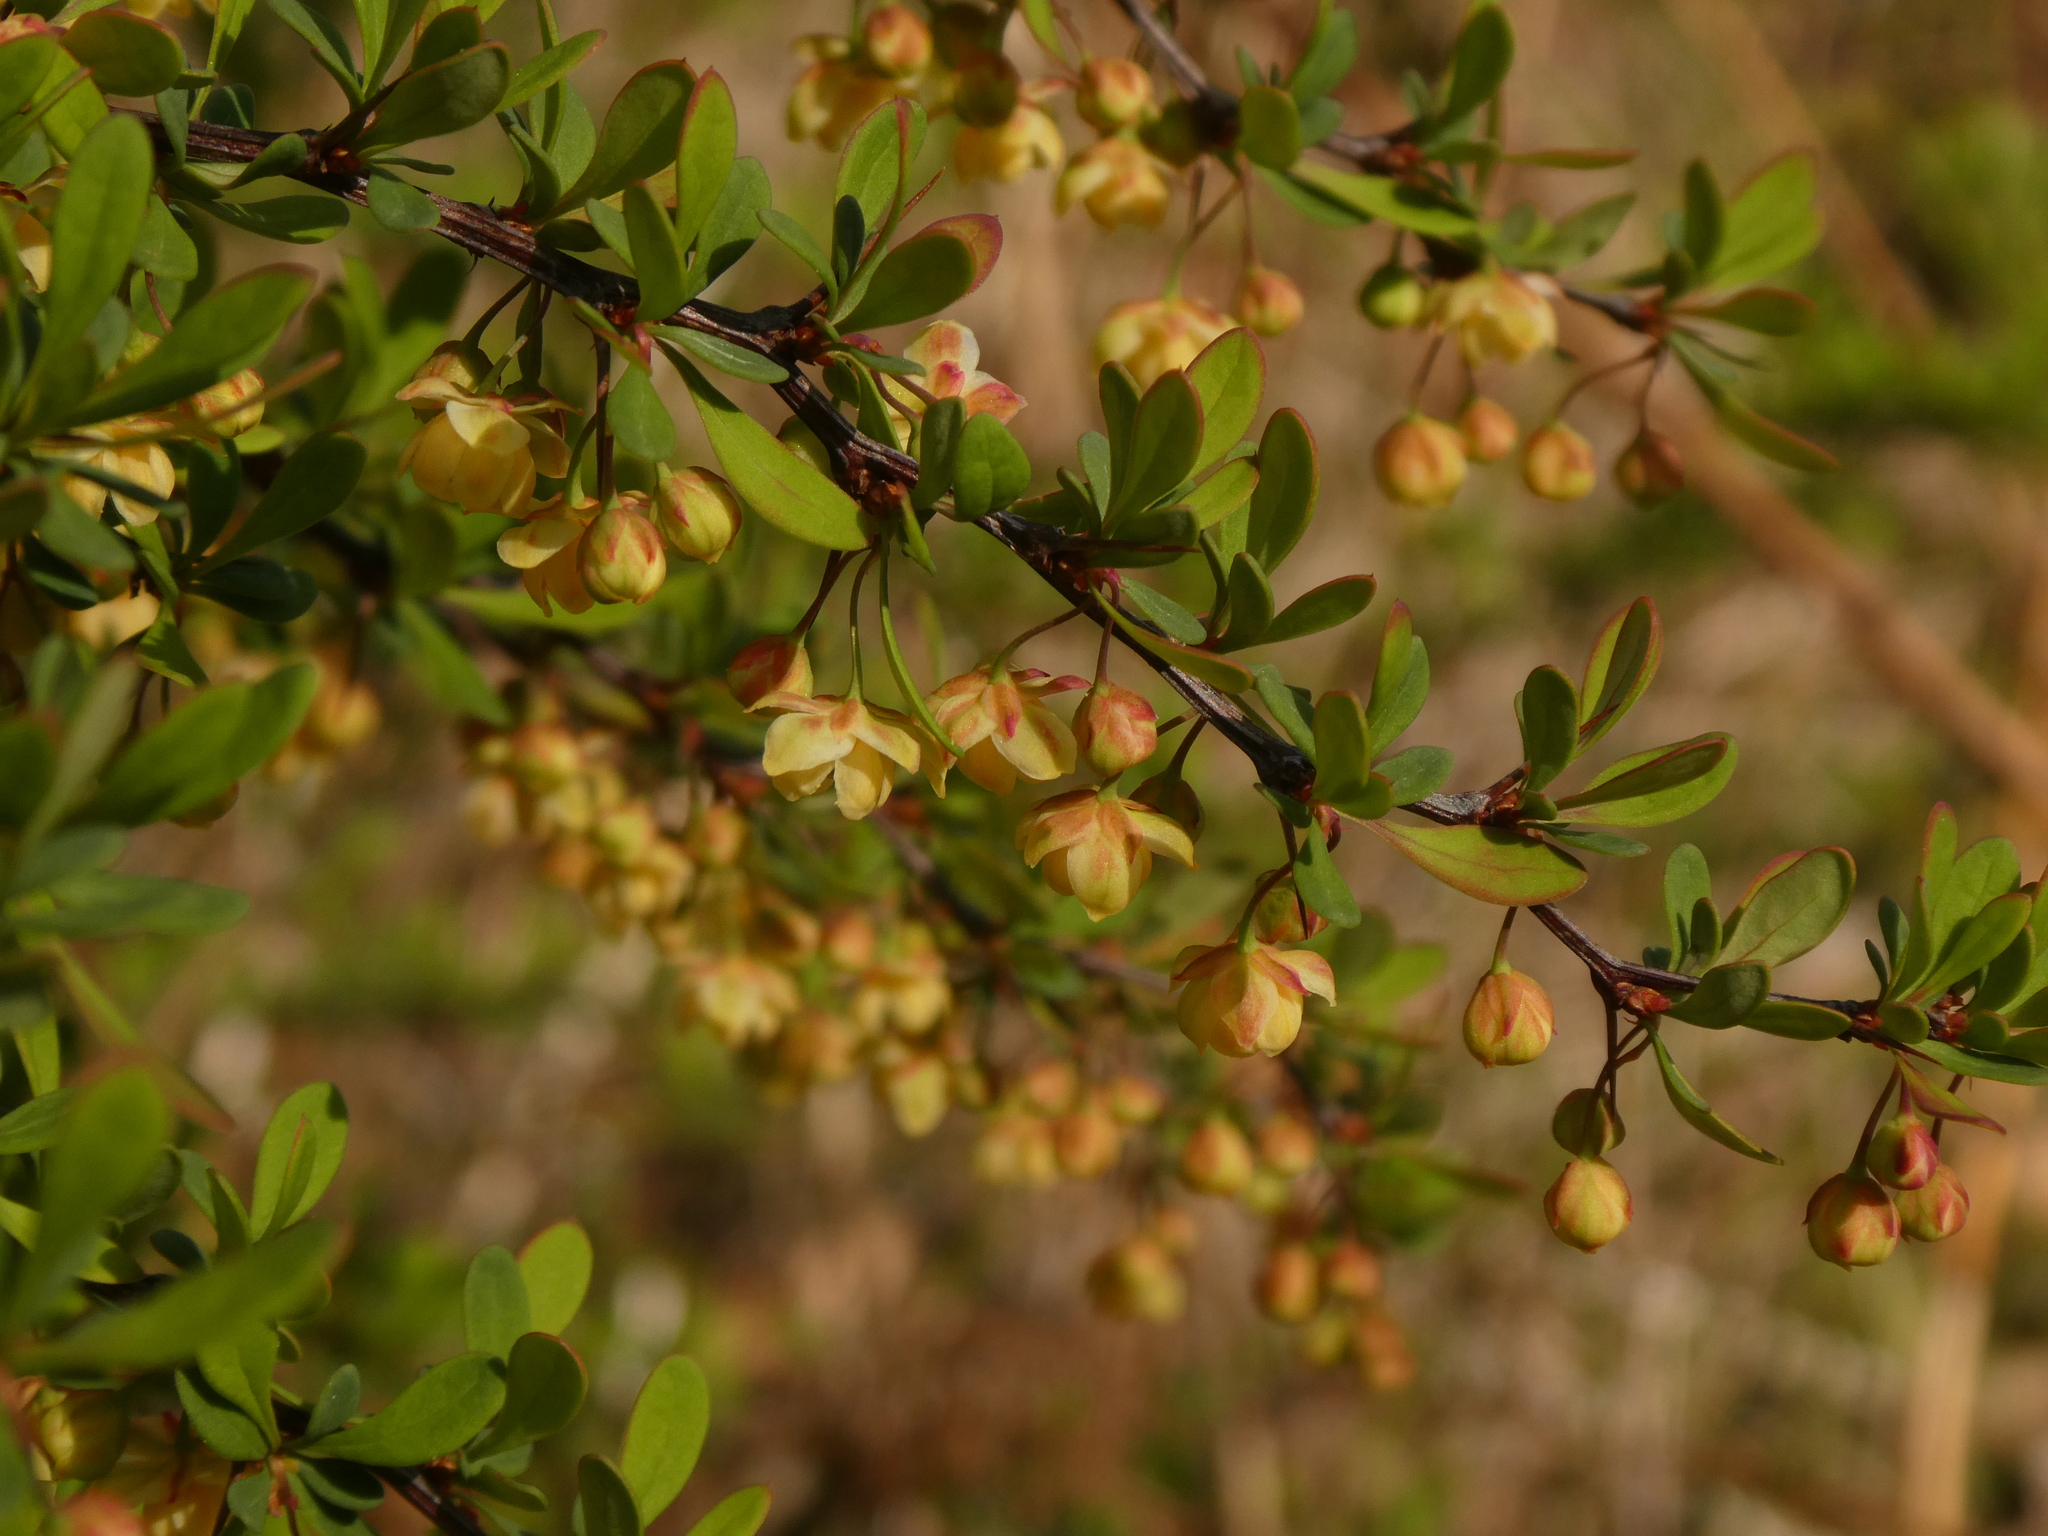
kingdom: Plantae
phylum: Tracheophyta
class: Magnoliopsida
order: Ranunculales
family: Berberidaceae
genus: Berberis
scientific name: Berberis thunbergii
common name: Japanese barberry
